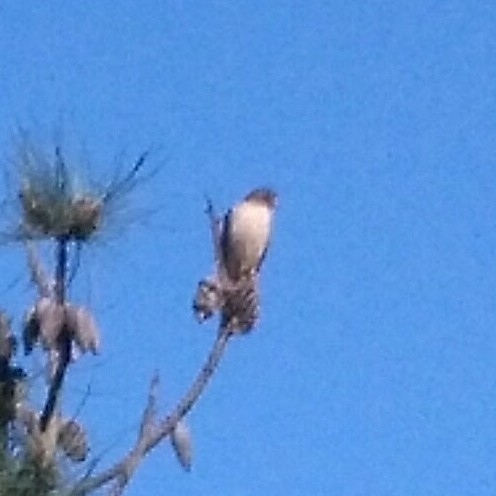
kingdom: Animalia
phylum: Chordata
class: Aves
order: Accipitriformes
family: Accipitridae
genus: Rupornis
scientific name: Rupornis magnirostris
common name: Roadside hawk
